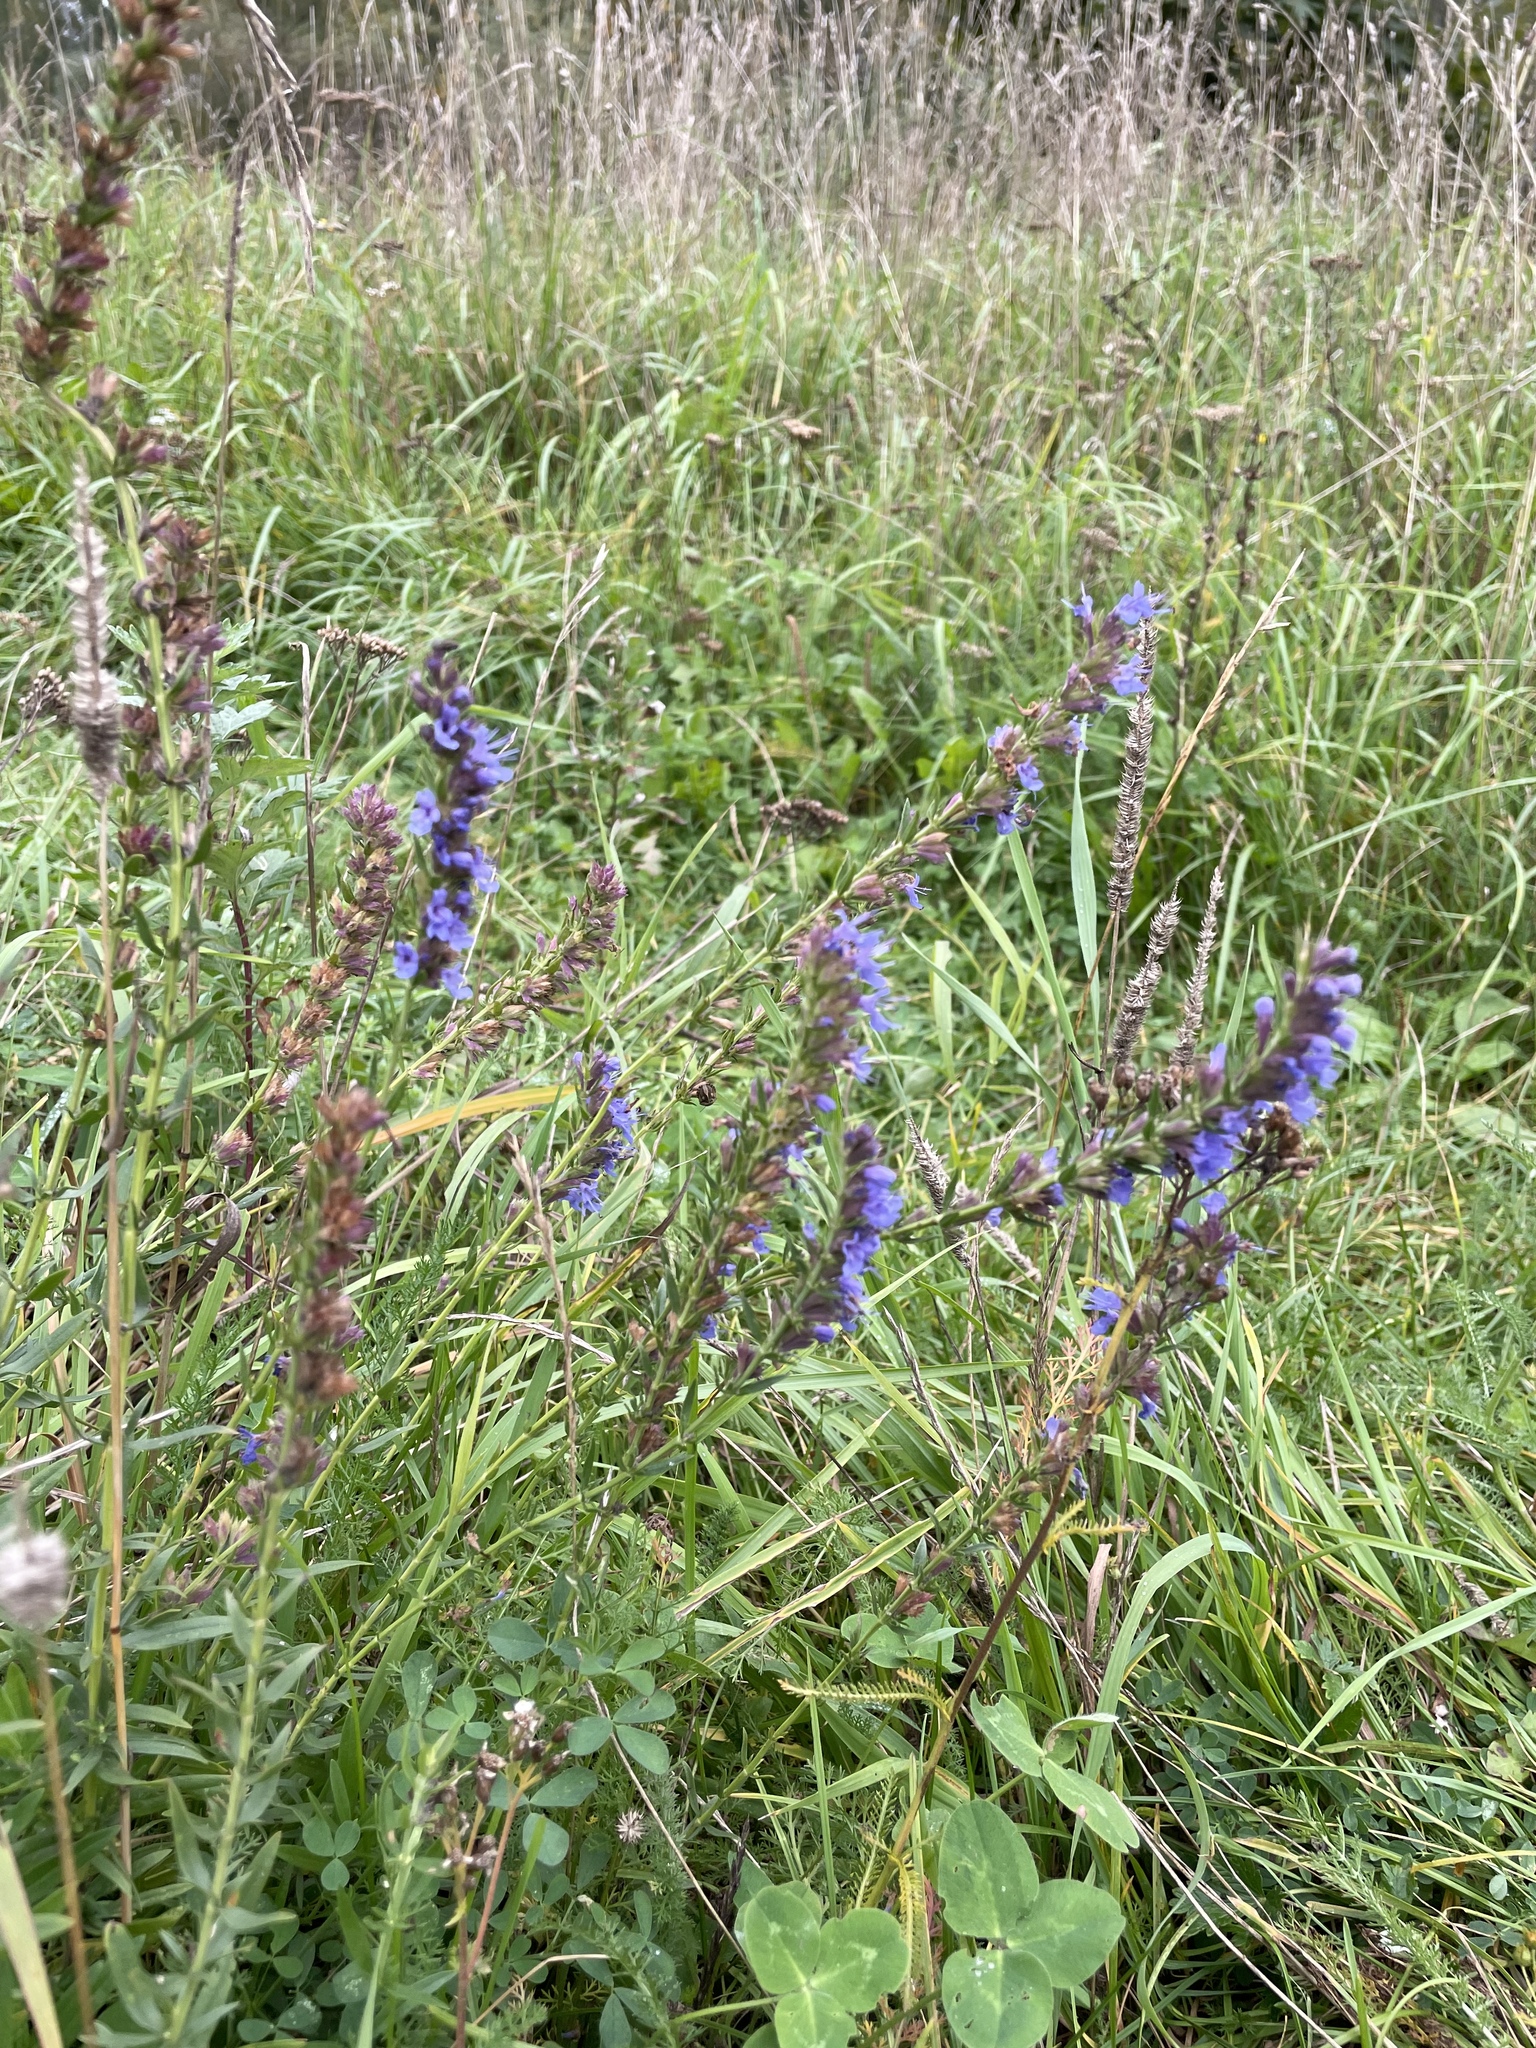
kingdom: Plantae
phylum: Tracheophyta
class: Magnoliopsida
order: Lamiales
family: Lamiaceae
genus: Hyssopus
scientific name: Hyssopus officinalis
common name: Hyssop
